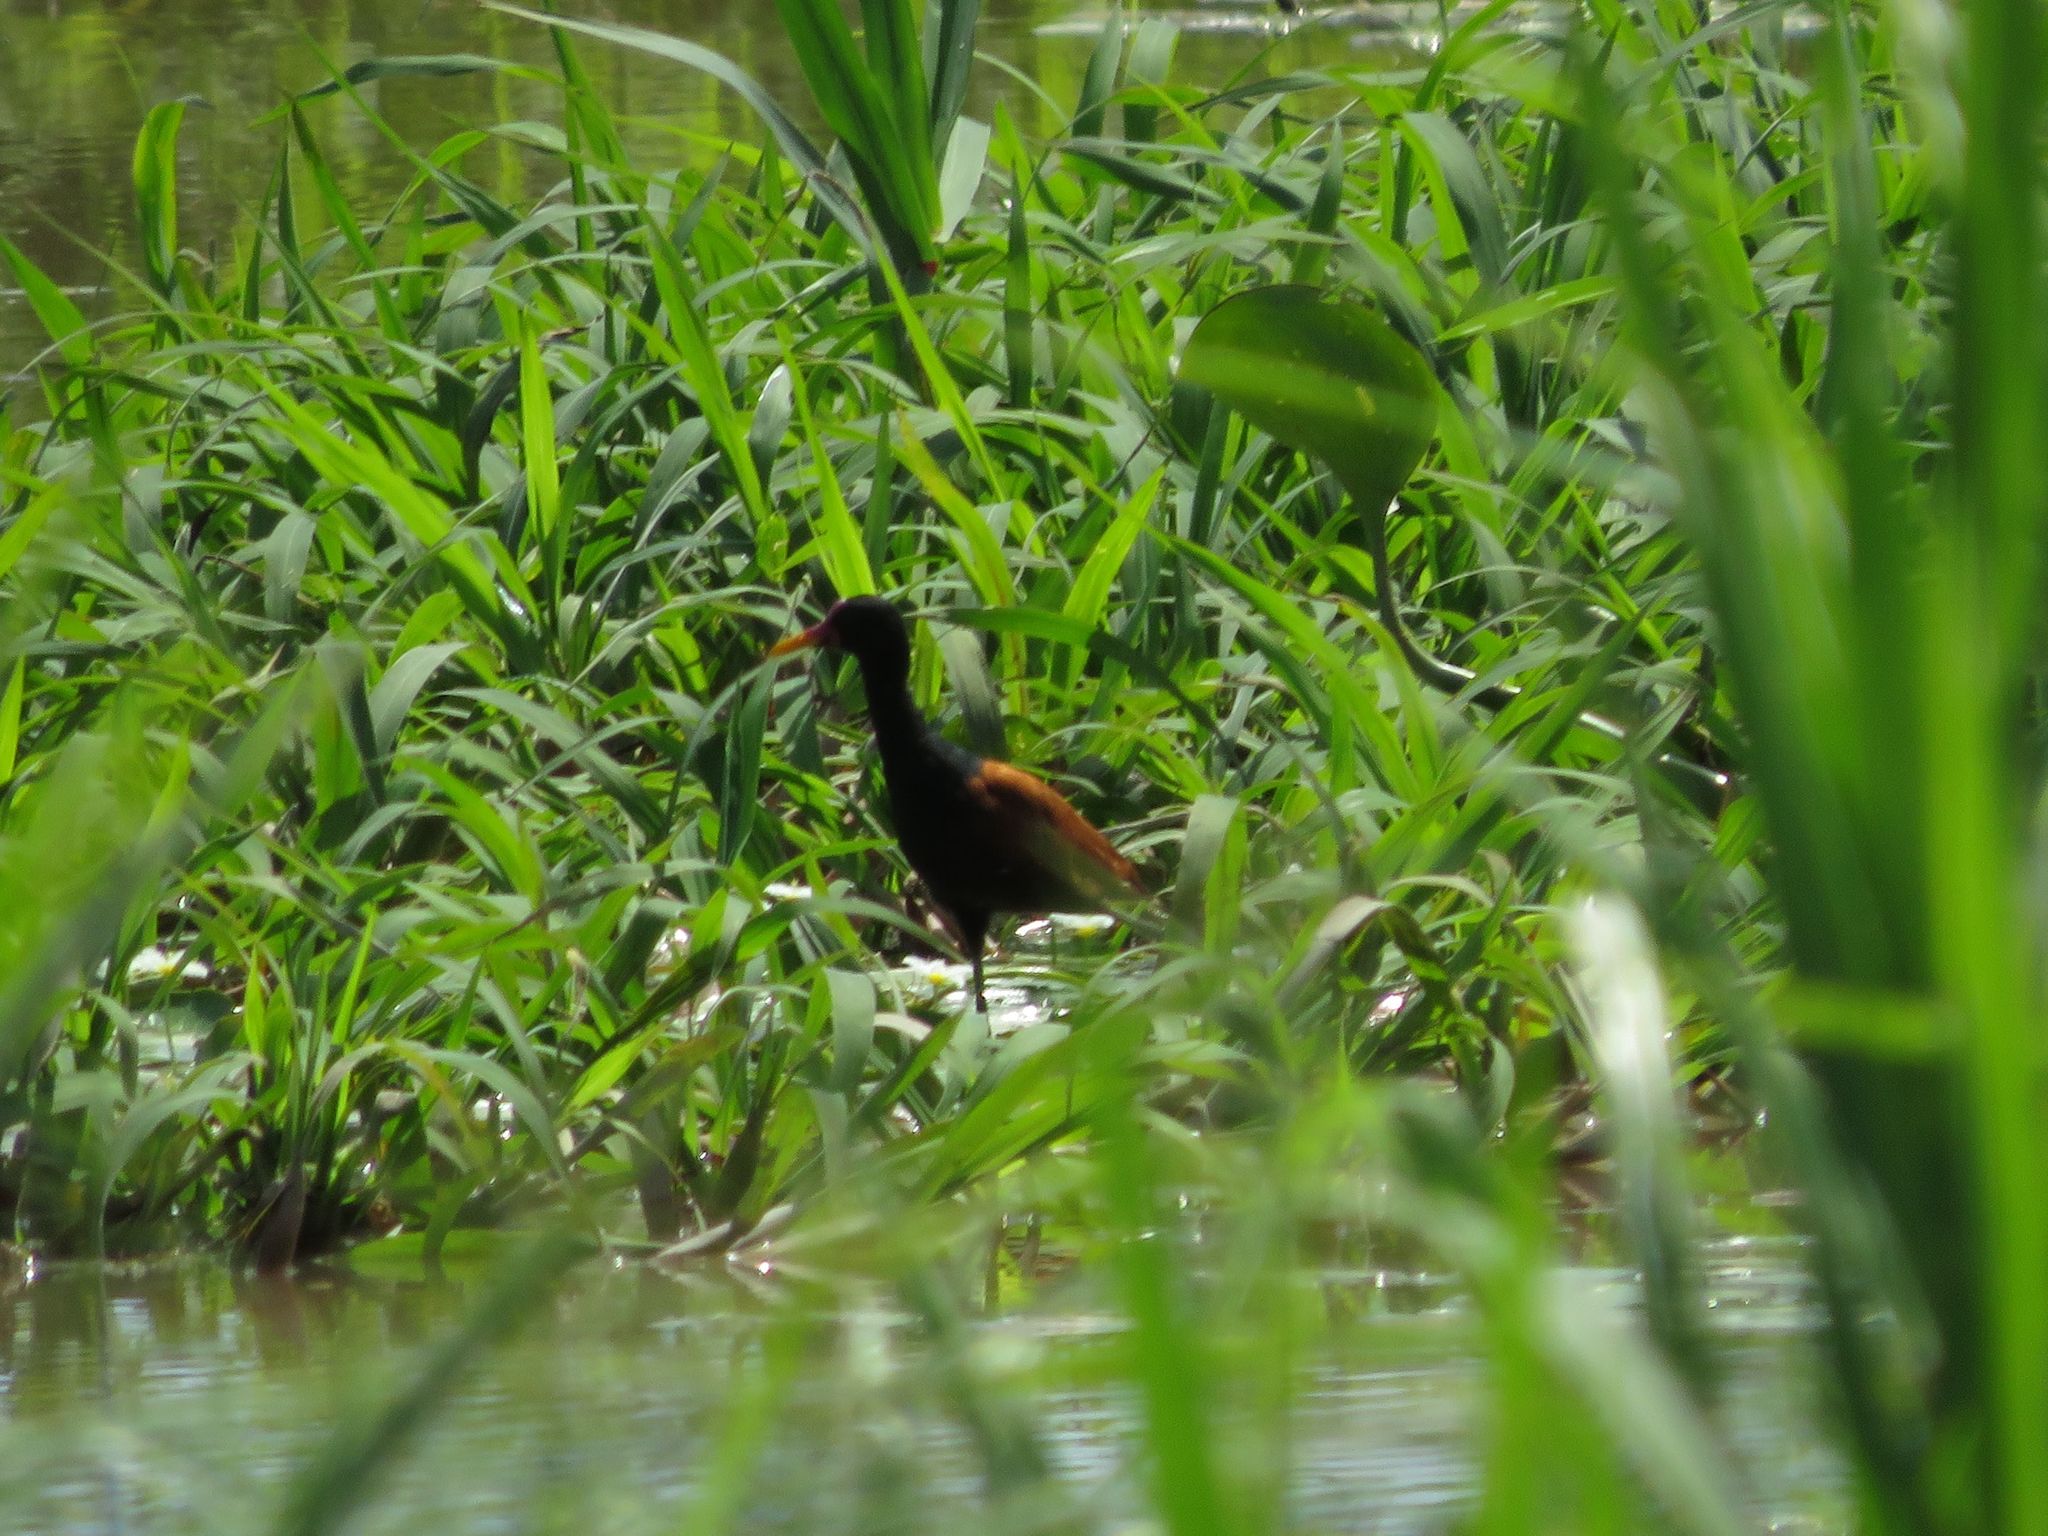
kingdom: Animalia
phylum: Chordata
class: Aves
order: Charadriiformes
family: Jacanidae
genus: Jacana
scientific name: Jacana jacana
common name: Wattled jacana
